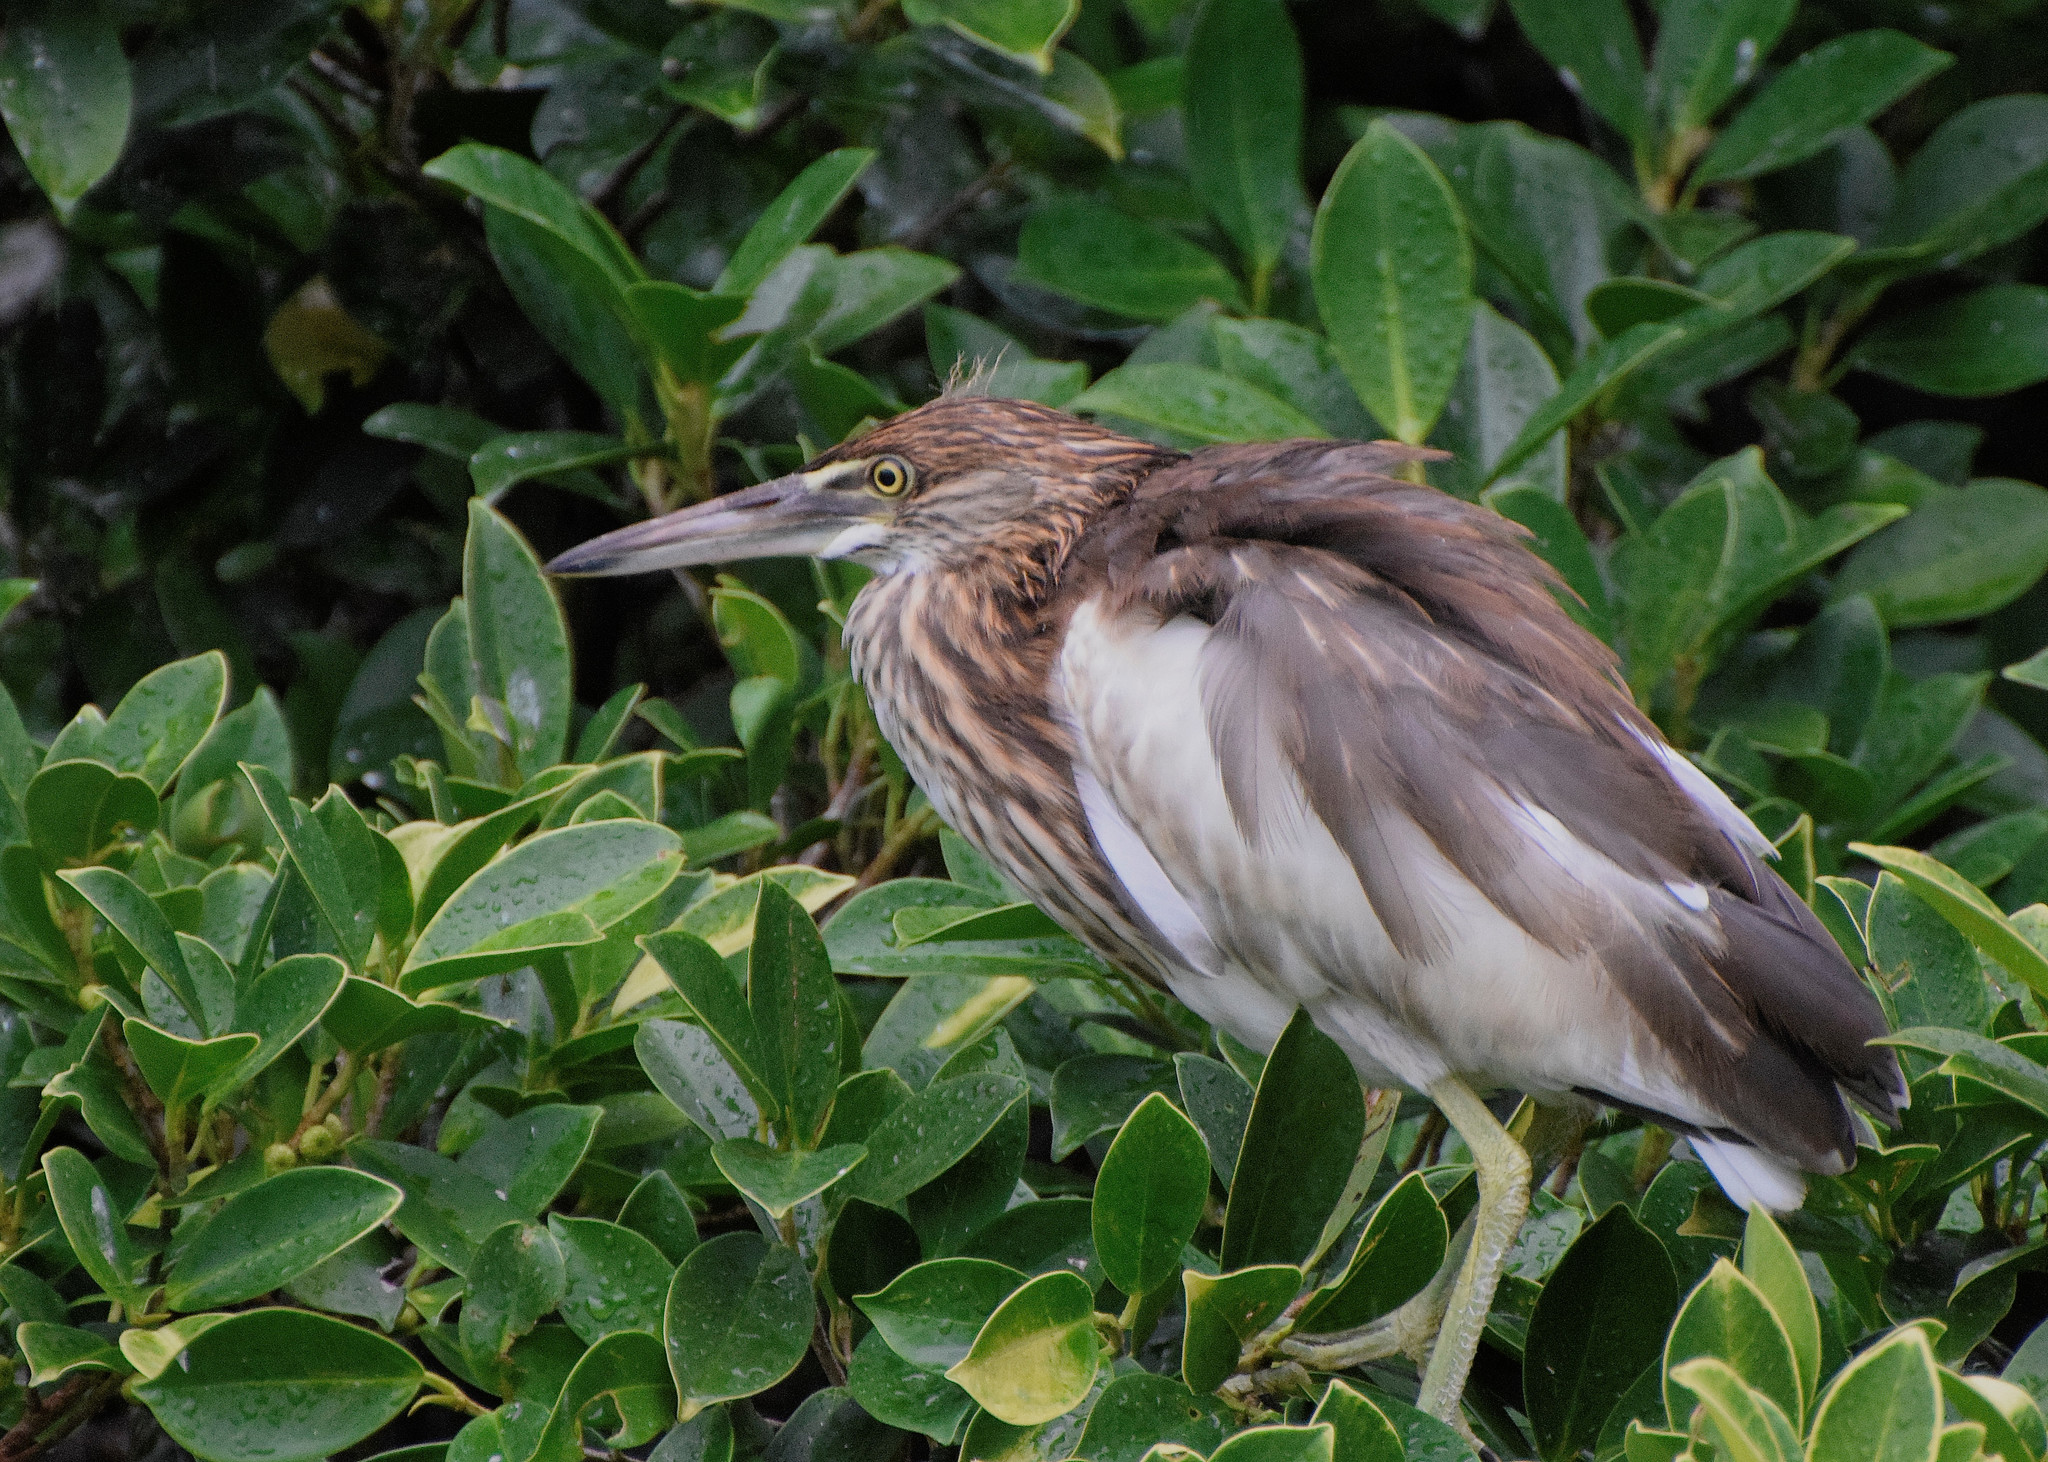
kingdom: Animalia
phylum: Chordata
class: Aves
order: Pelecaniformes
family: Ardeidae
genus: Ardeola
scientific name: Ardeola bacchus
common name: Chinese pond heron
